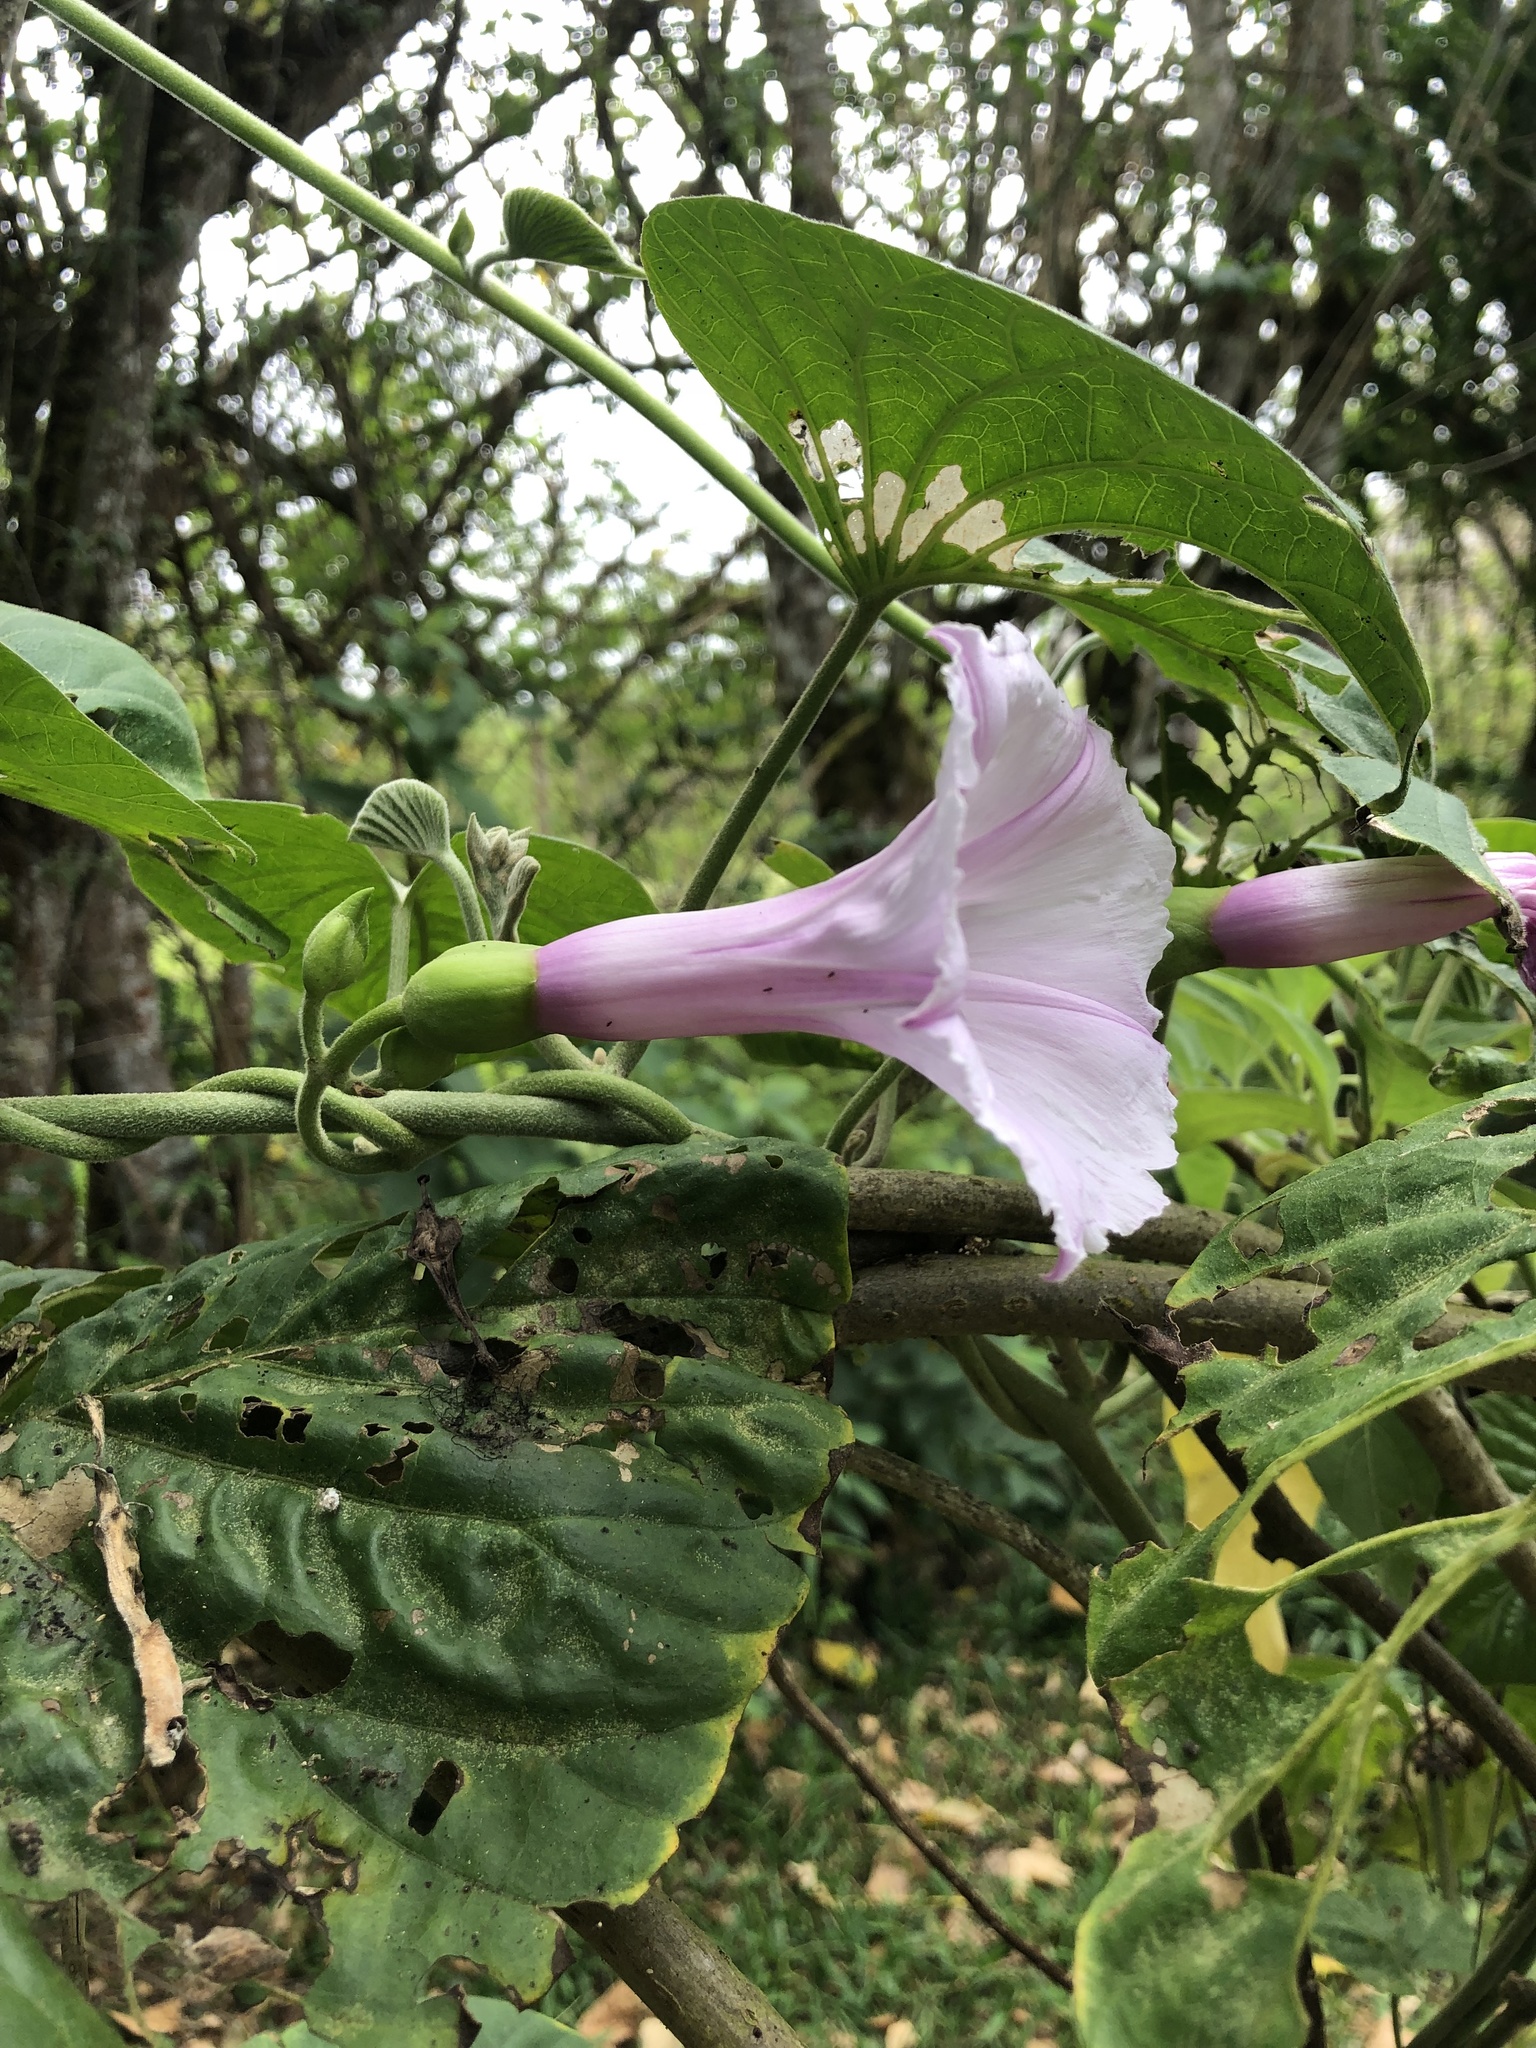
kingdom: Plantae
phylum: Tracheophyta
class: Magnoliopsida
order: Solanales
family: Convolvulaceae
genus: Stictocardia
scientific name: Stictocardia tiliifolia
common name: Spottedheart
